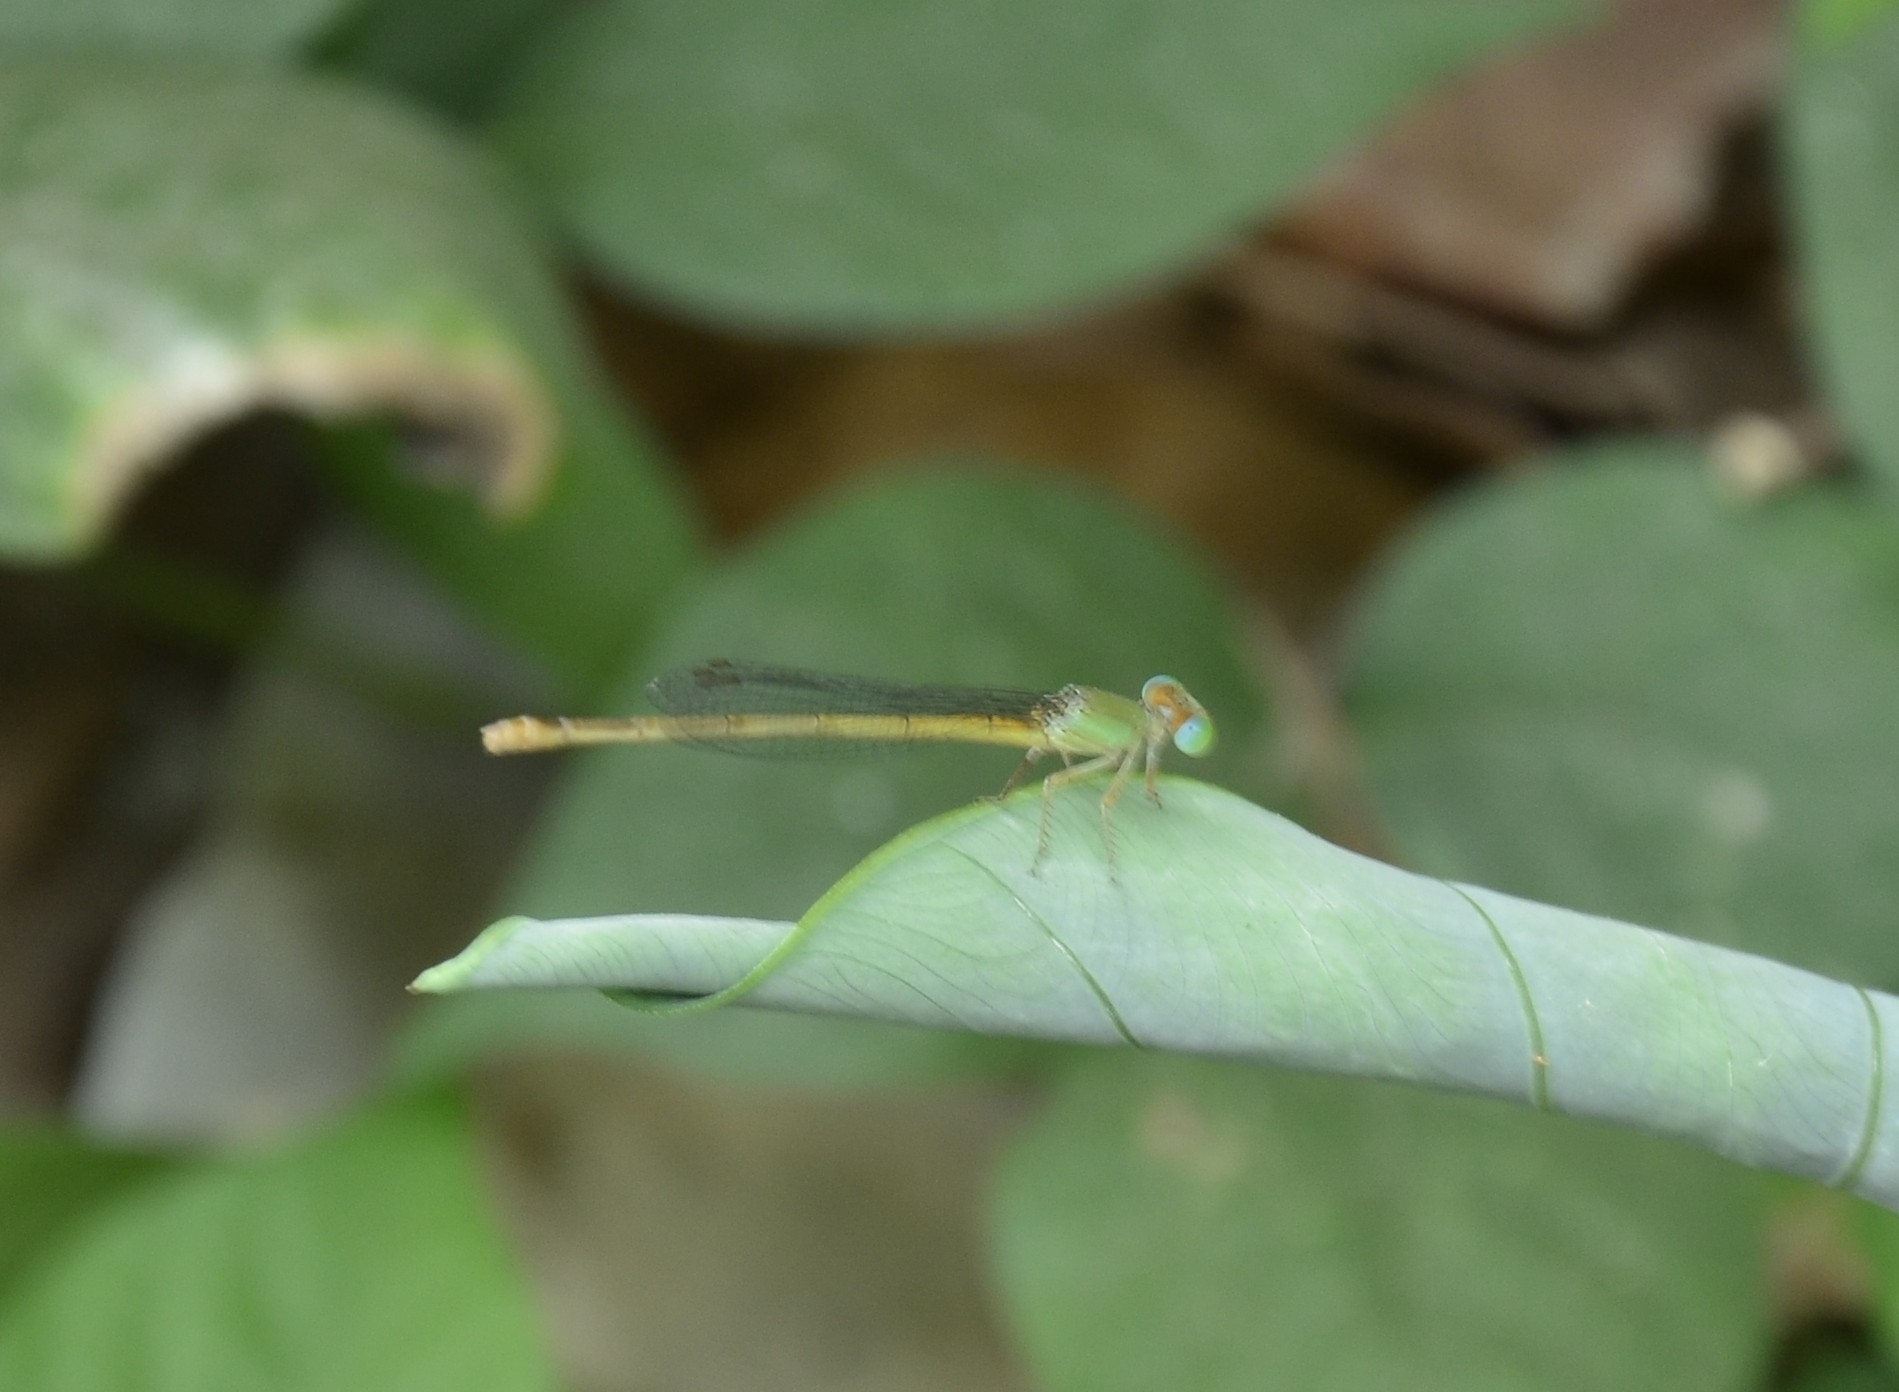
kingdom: Animalia
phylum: Arthropoda
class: Insecta
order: Odonata
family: Coenagrionidae
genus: Ceriagrion
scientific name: Ceriagrion coromandelianum
